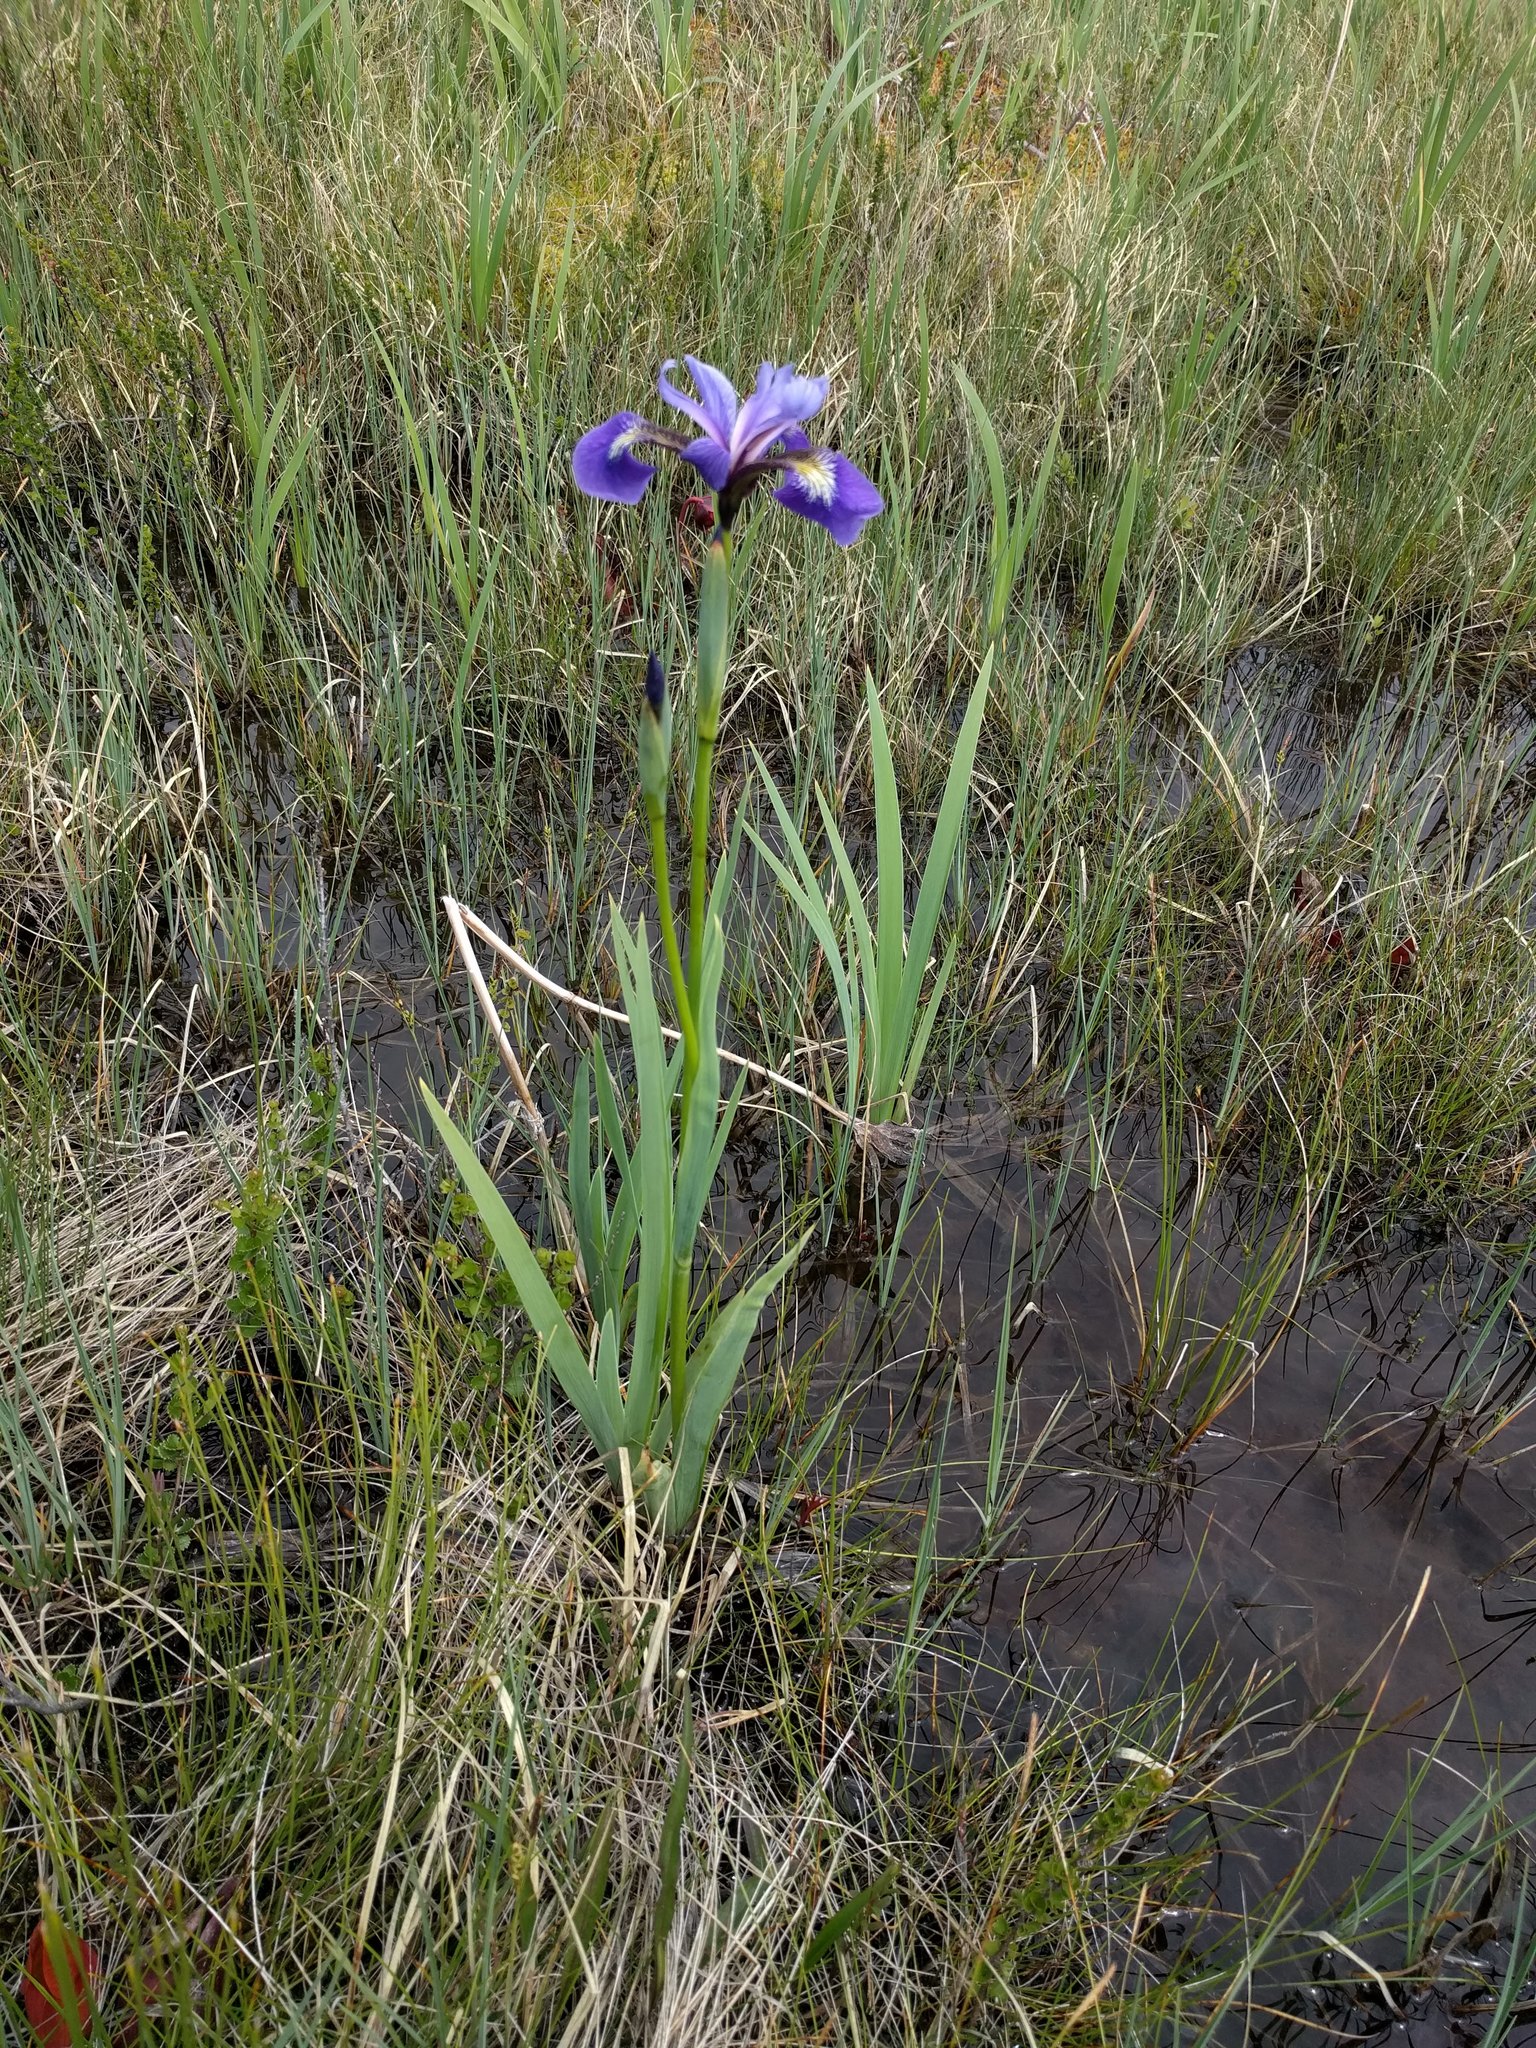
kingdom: Plantae
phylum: Tracheophyta
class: Liliopsida
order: Asparagales
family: Iridaceae
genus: Iris
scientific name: Iris versicolor
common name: Purple iris
